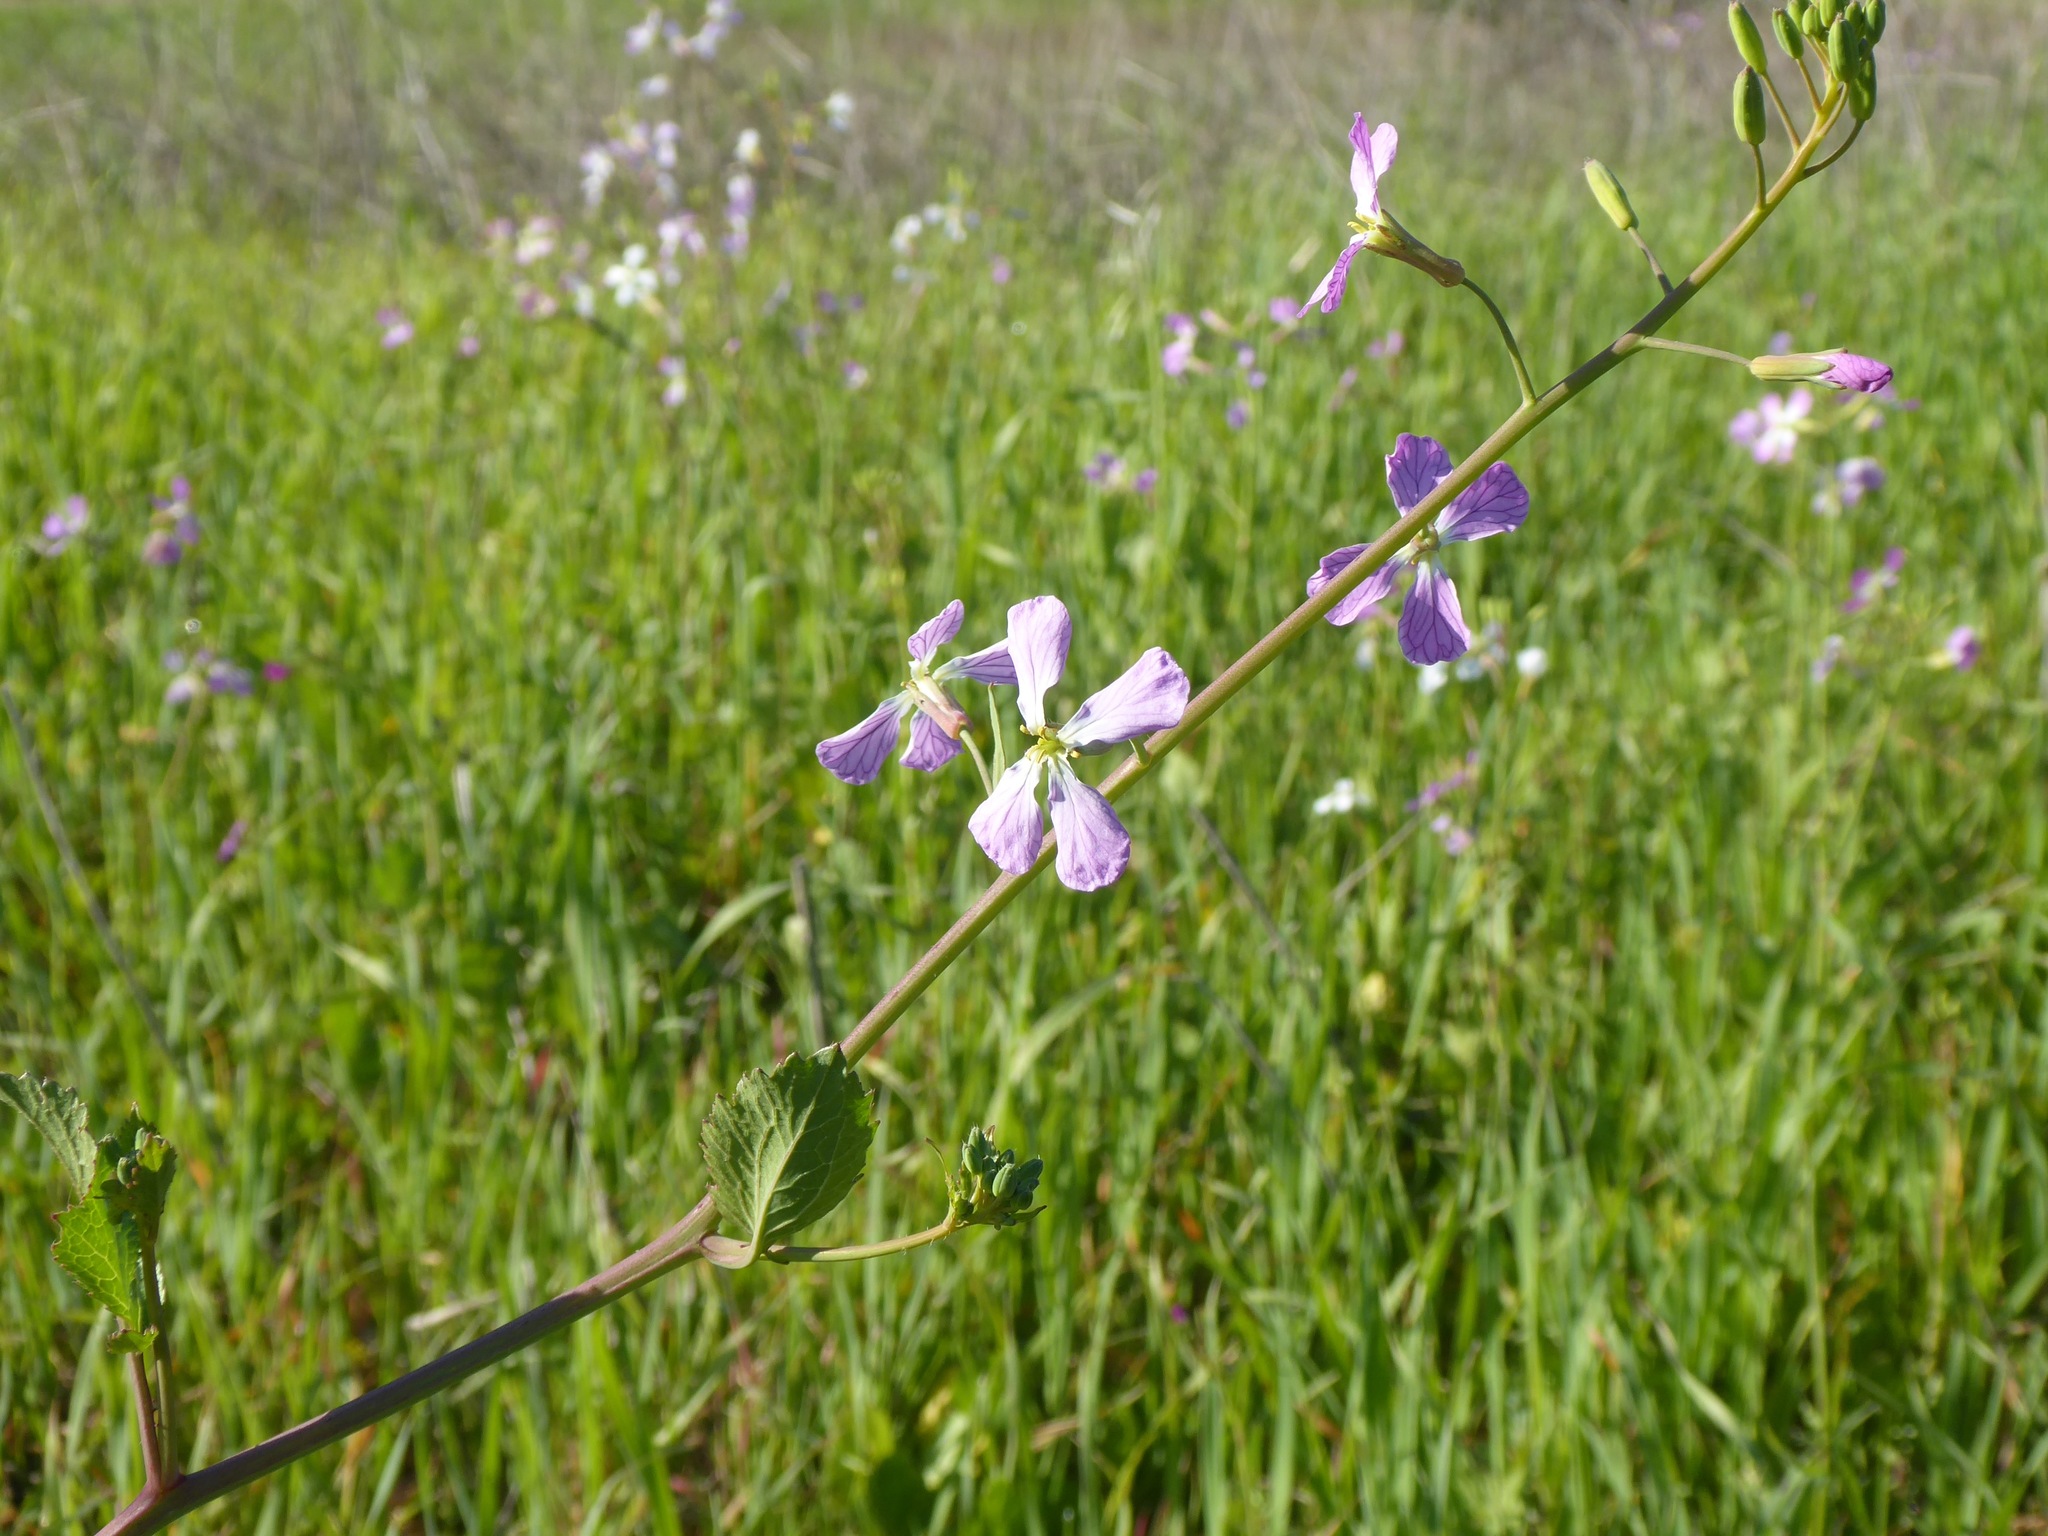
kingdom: Plantae
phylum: Tracheophyta
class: Magnoliopsida
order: Brassicales
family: Brassicaceae
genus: Raphanus
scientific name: Raphanus sativus
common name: Cultivated radish
